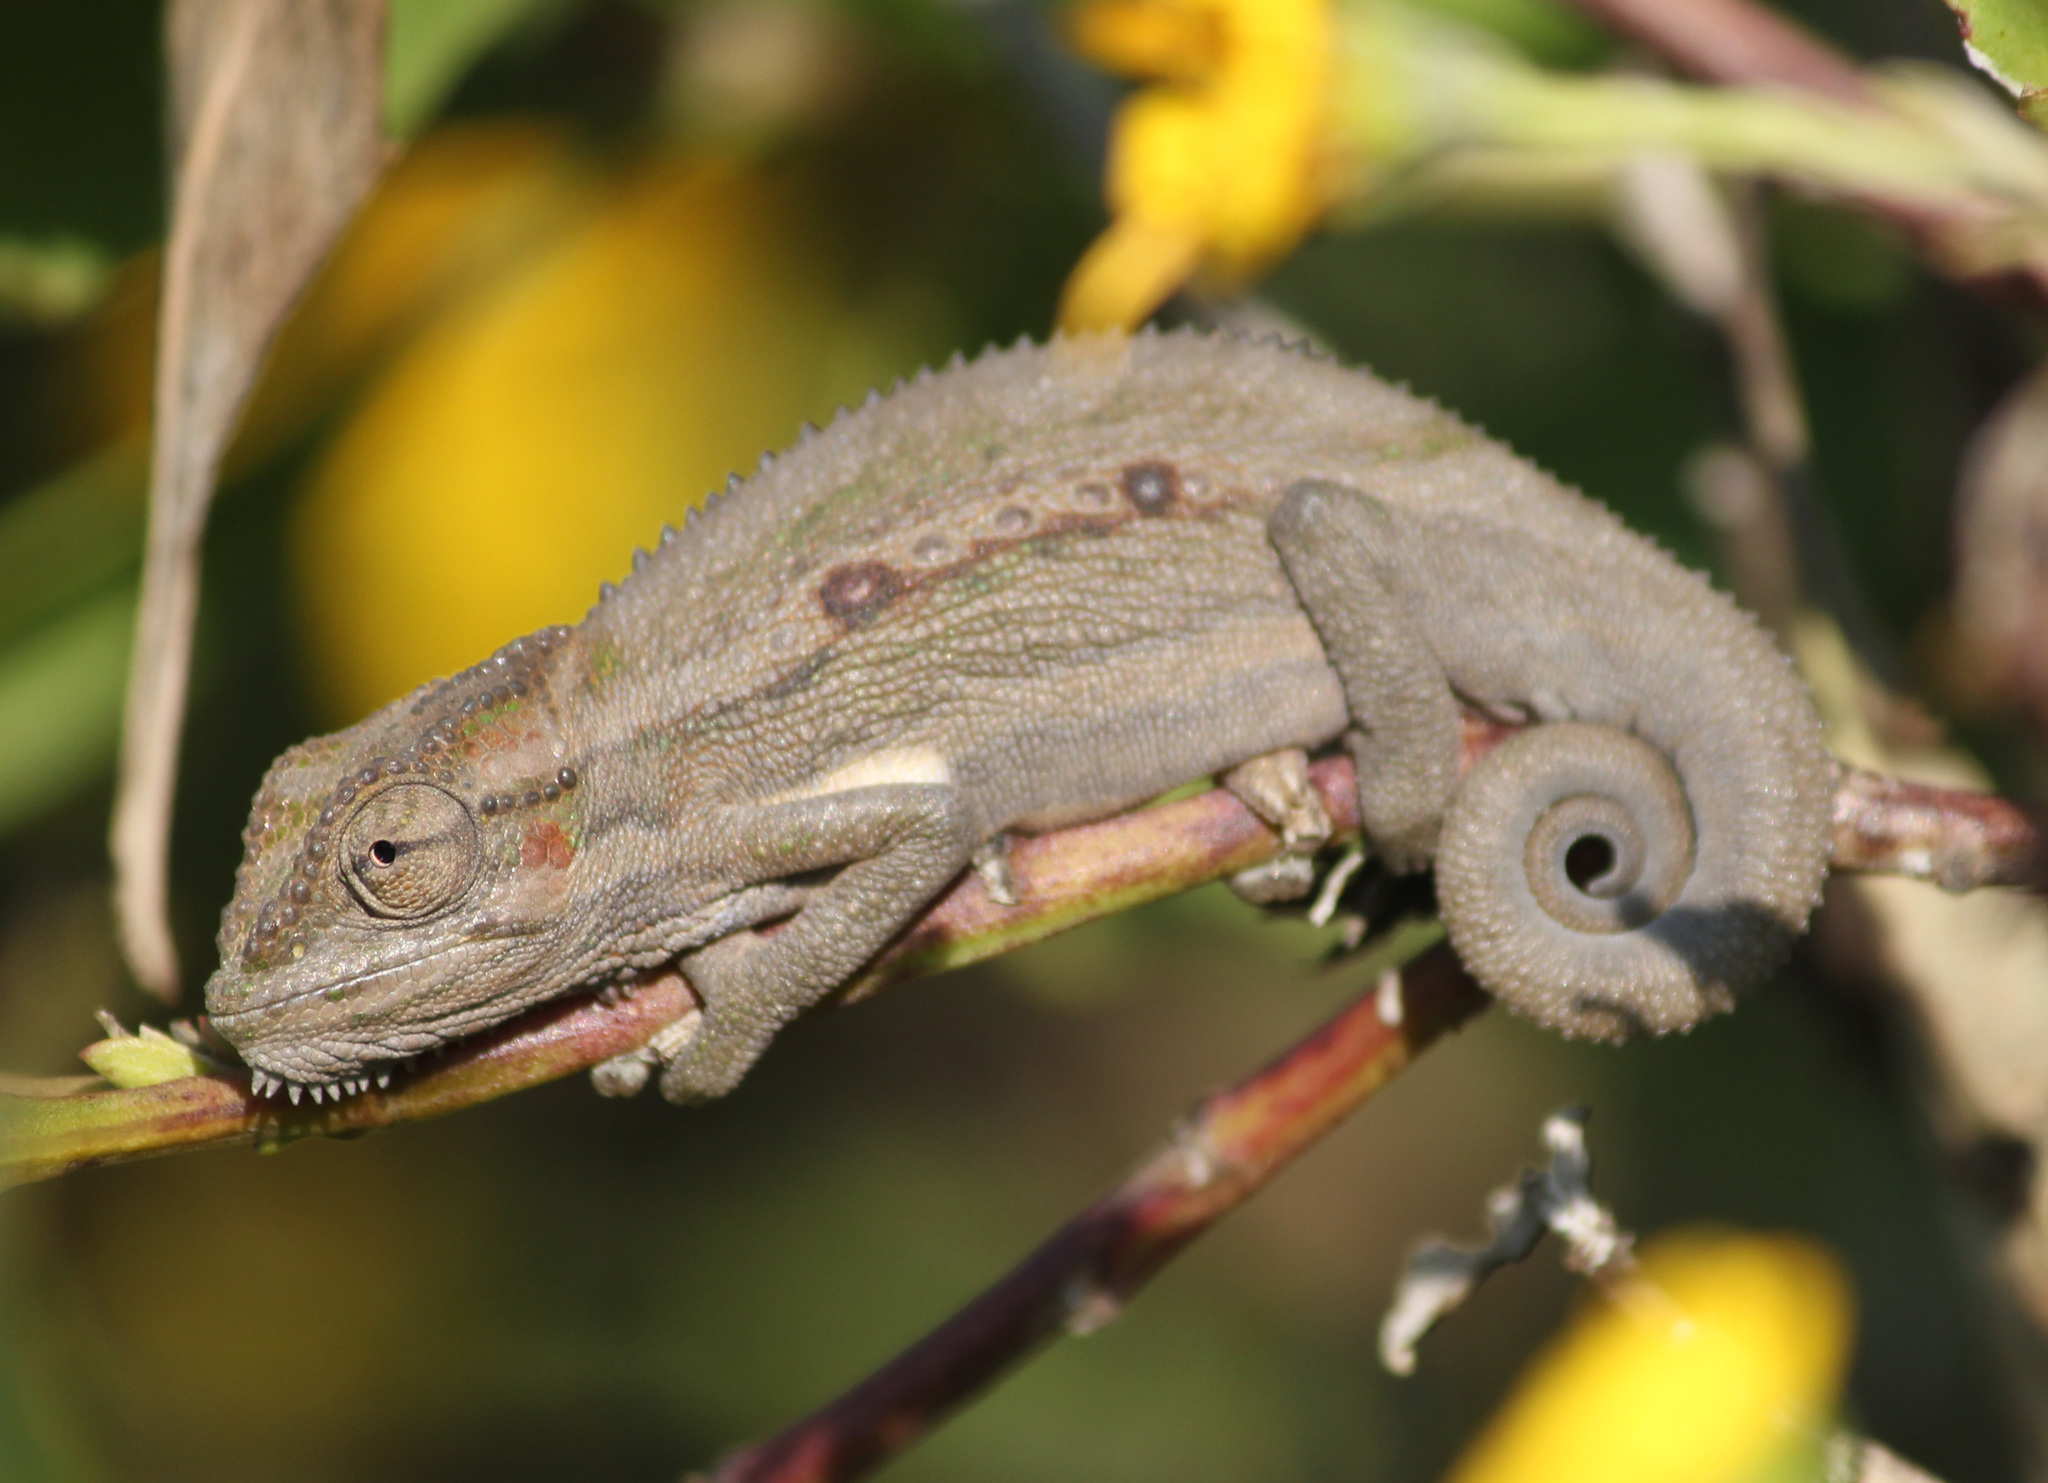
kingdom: Animalia
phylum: Chordata
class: Squamata
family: Chamaeleonidae
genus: Bradypodion
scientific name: Bradypodion pumilum
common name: Cape dwarf chameleon
